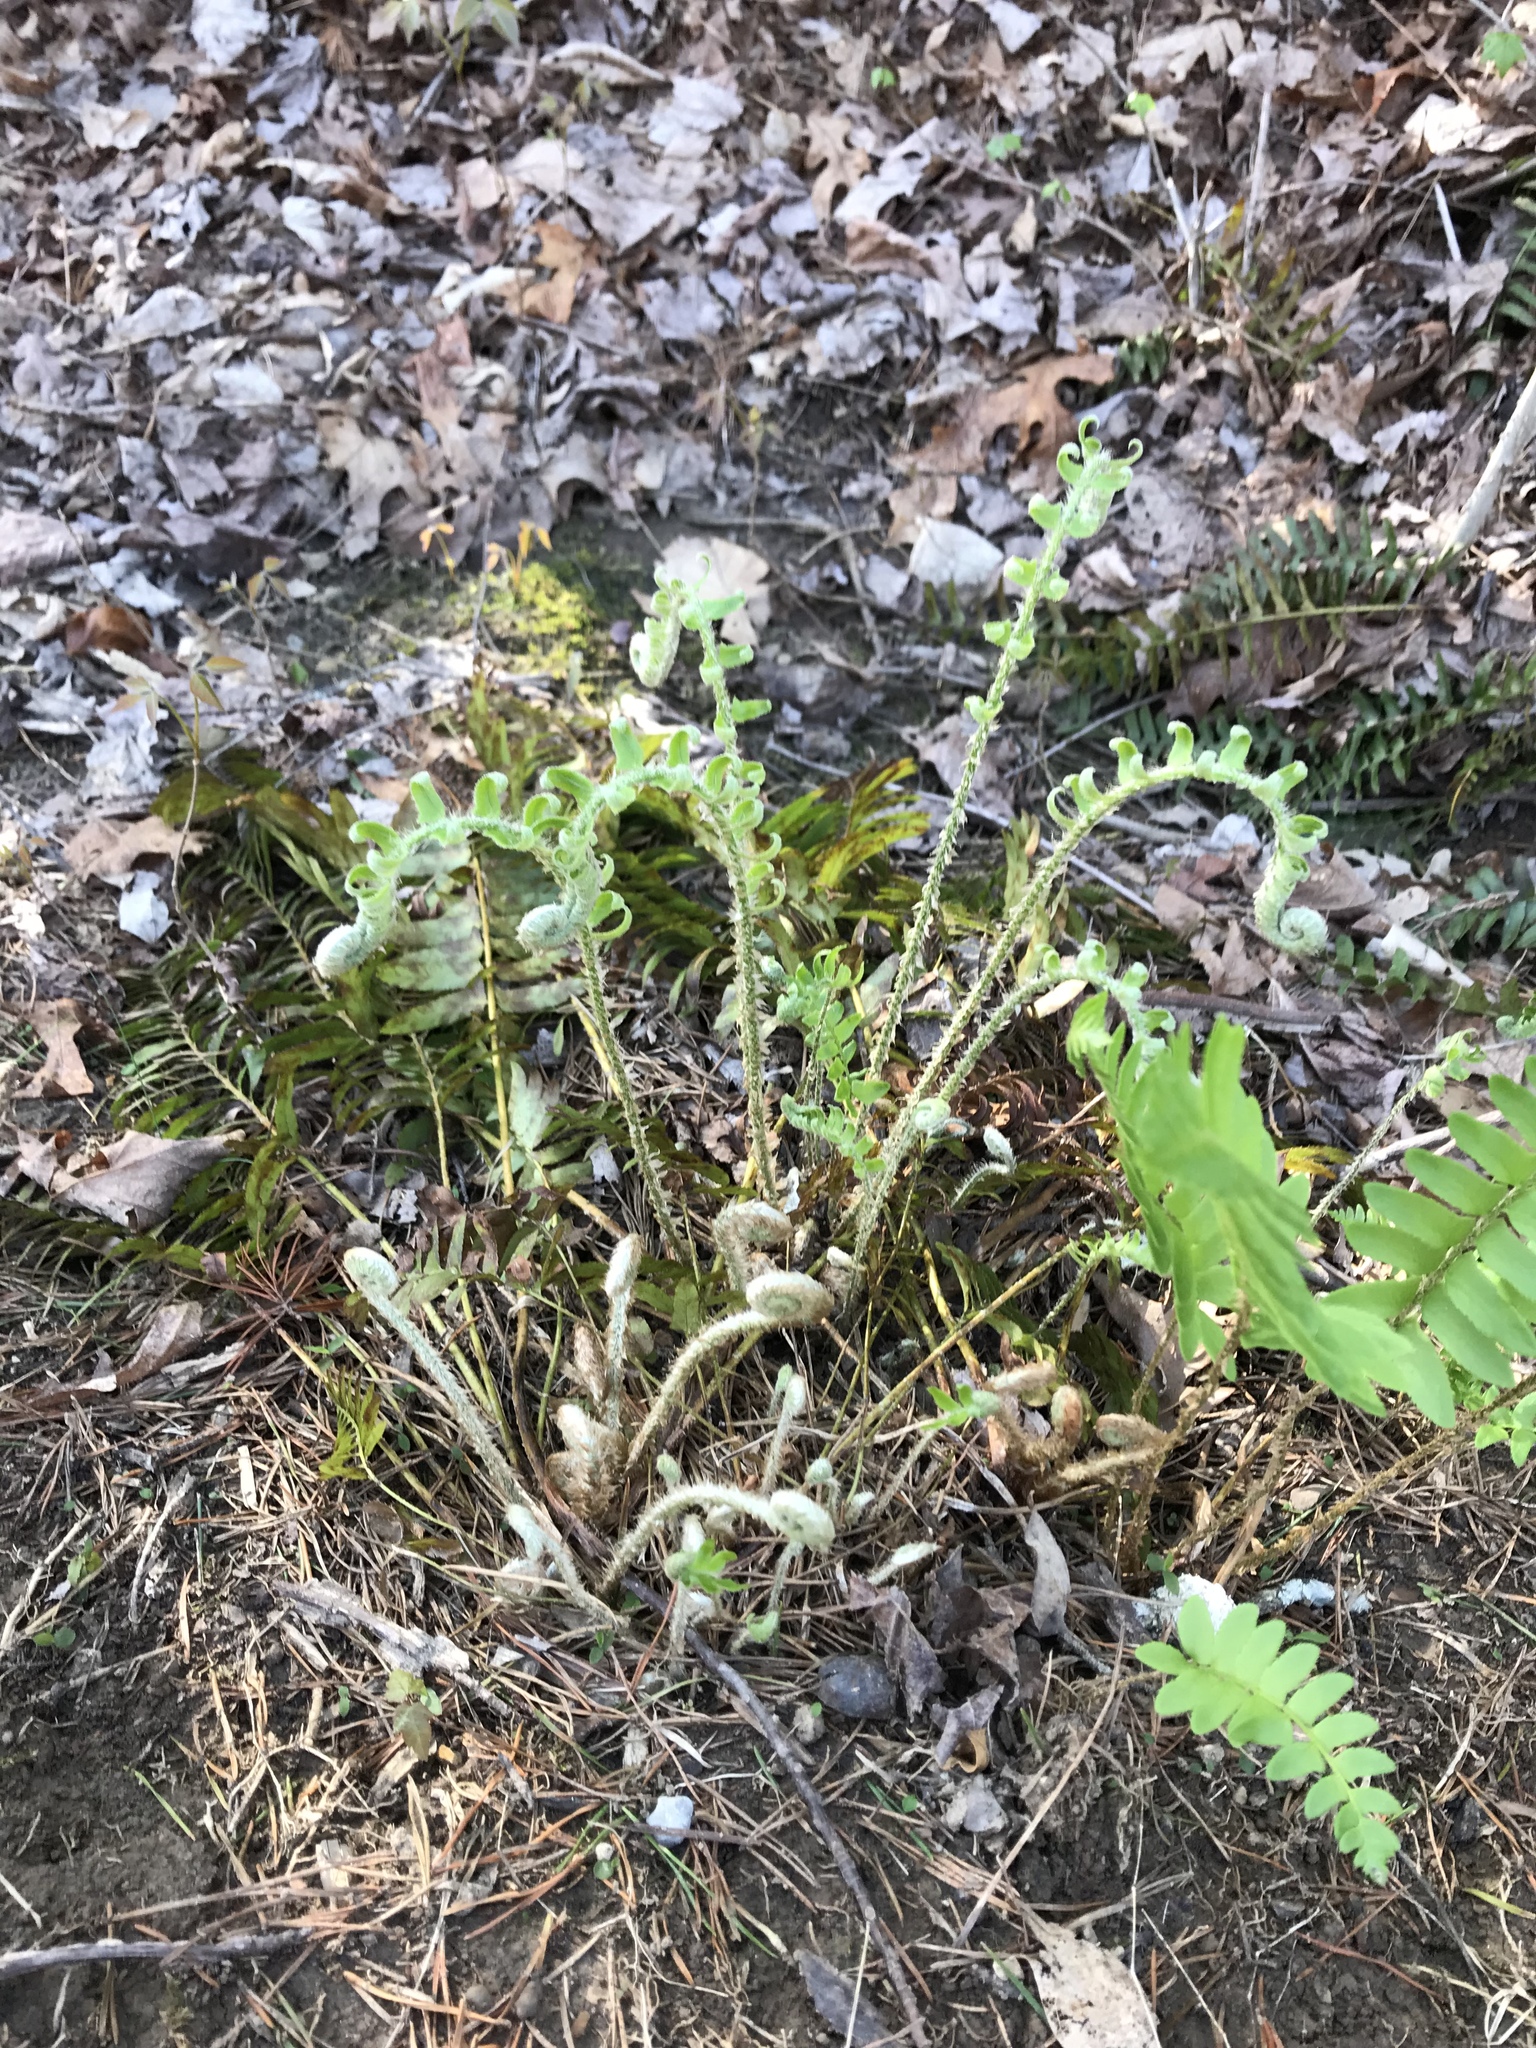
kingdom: Plantae
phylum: Tracheophyta
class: Polypodiopsida
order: Polypodiales
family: Dryopteridaceae
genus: Polystichum
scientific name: Polystichum acrostichoides
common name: Christmas fern
